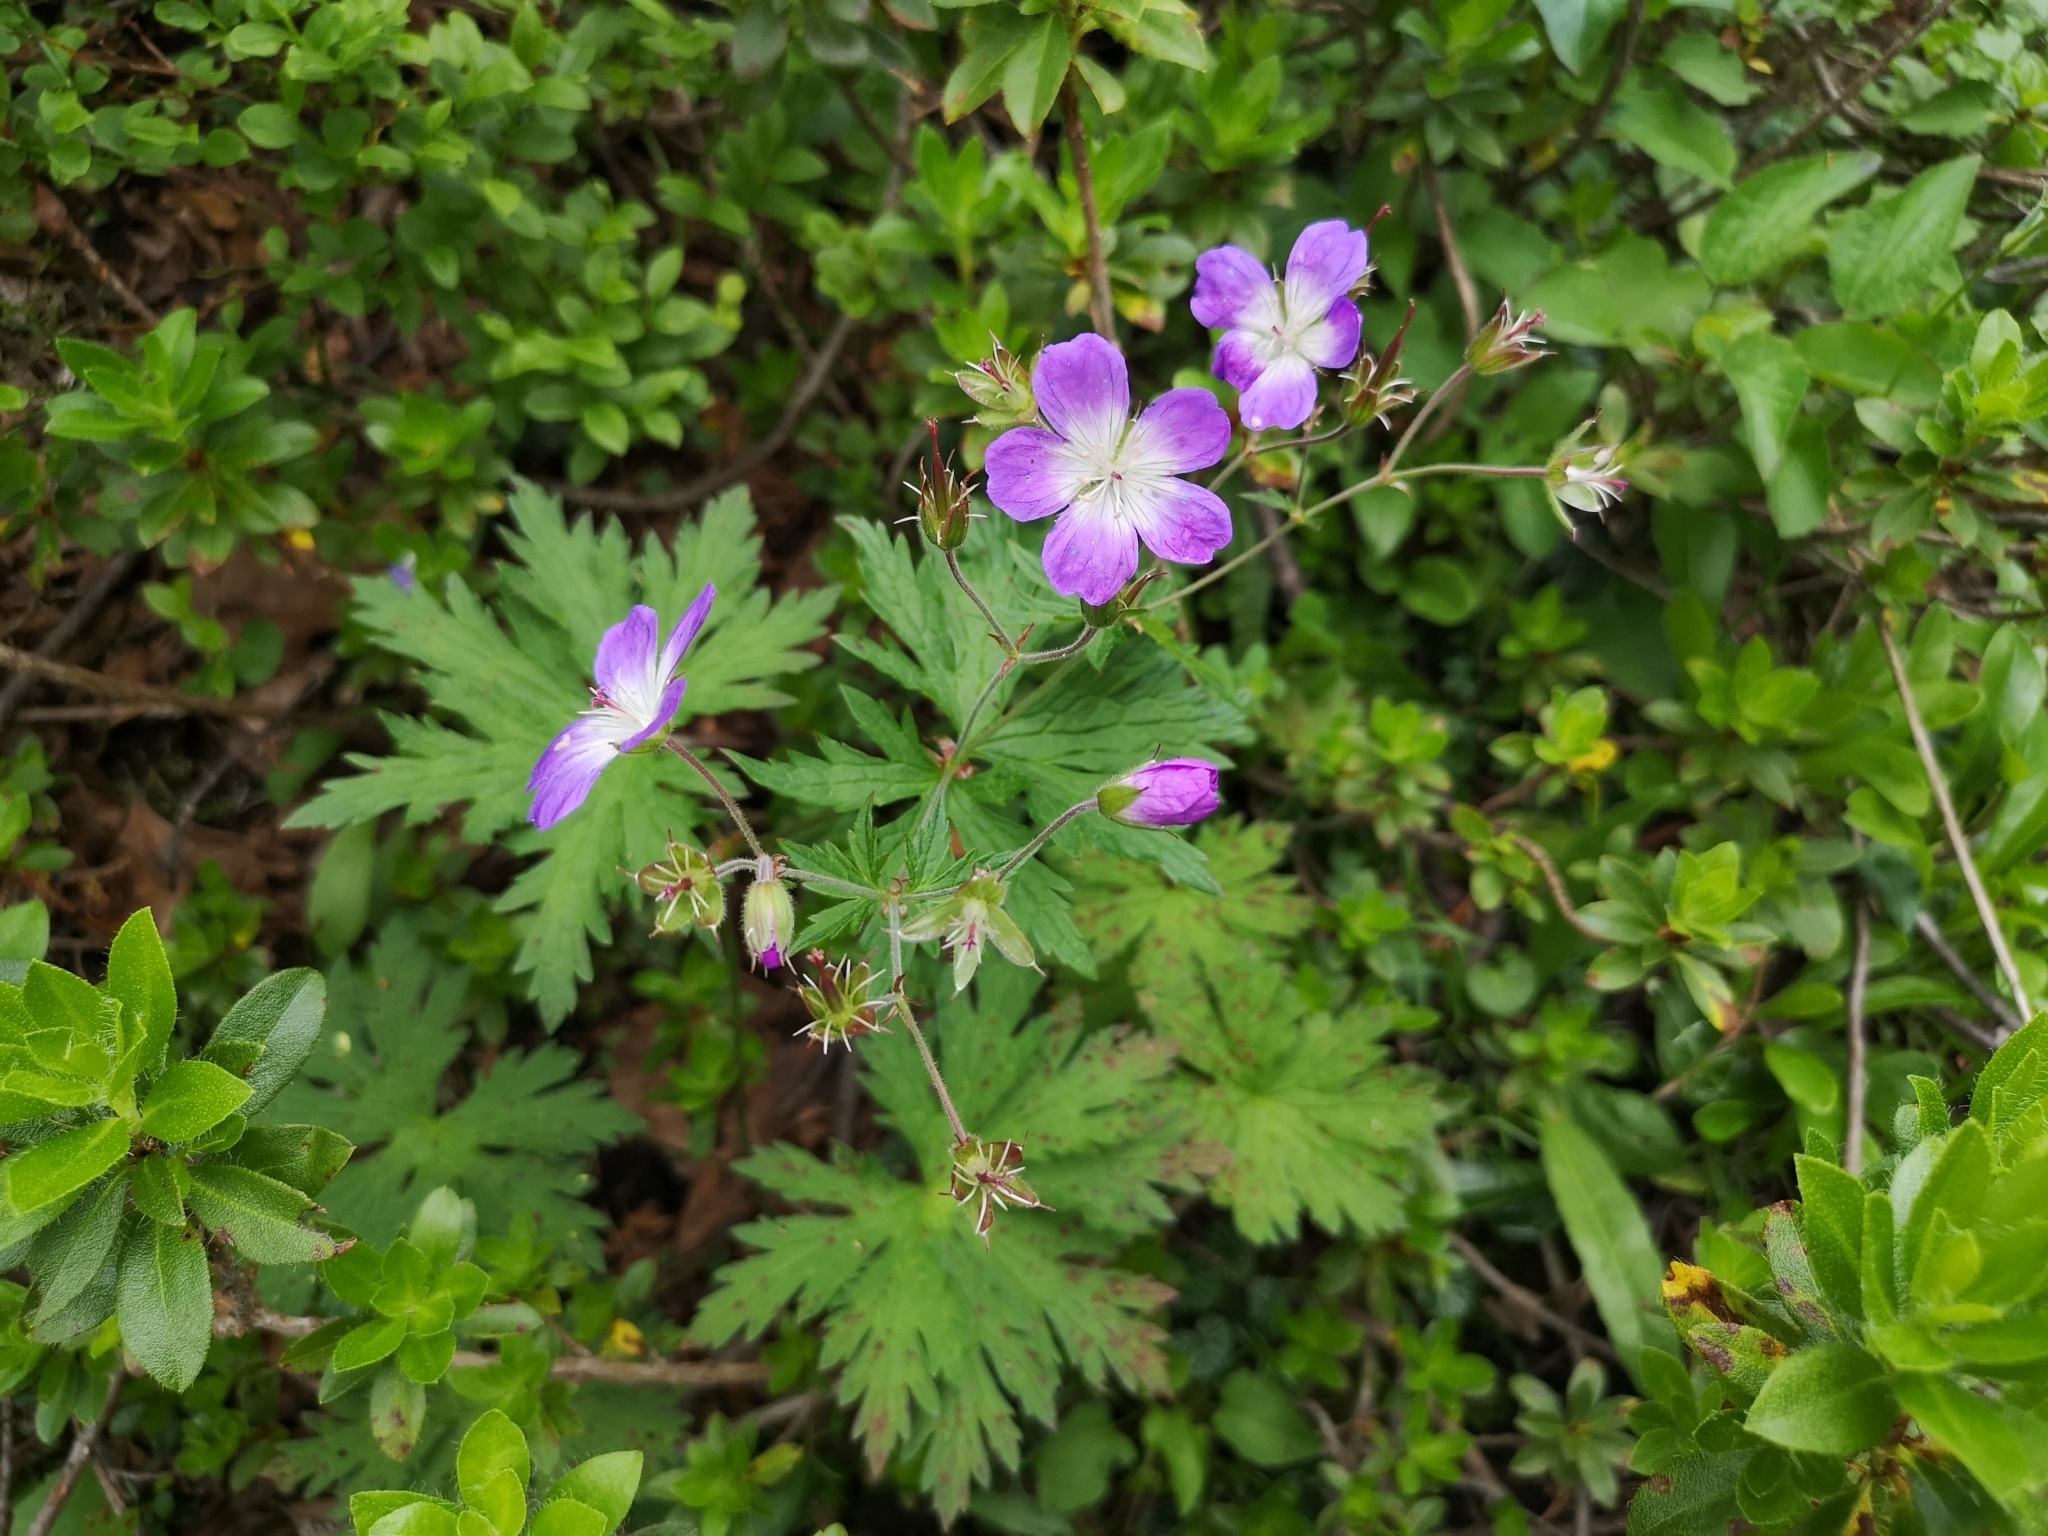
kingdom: Plantae
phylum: Tracheophyta
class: Magnoliopsida
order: Geraniales
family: Geraniaceae
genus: Geranium
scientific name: Geranium sylvaticum
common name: Wood crane's-bill
